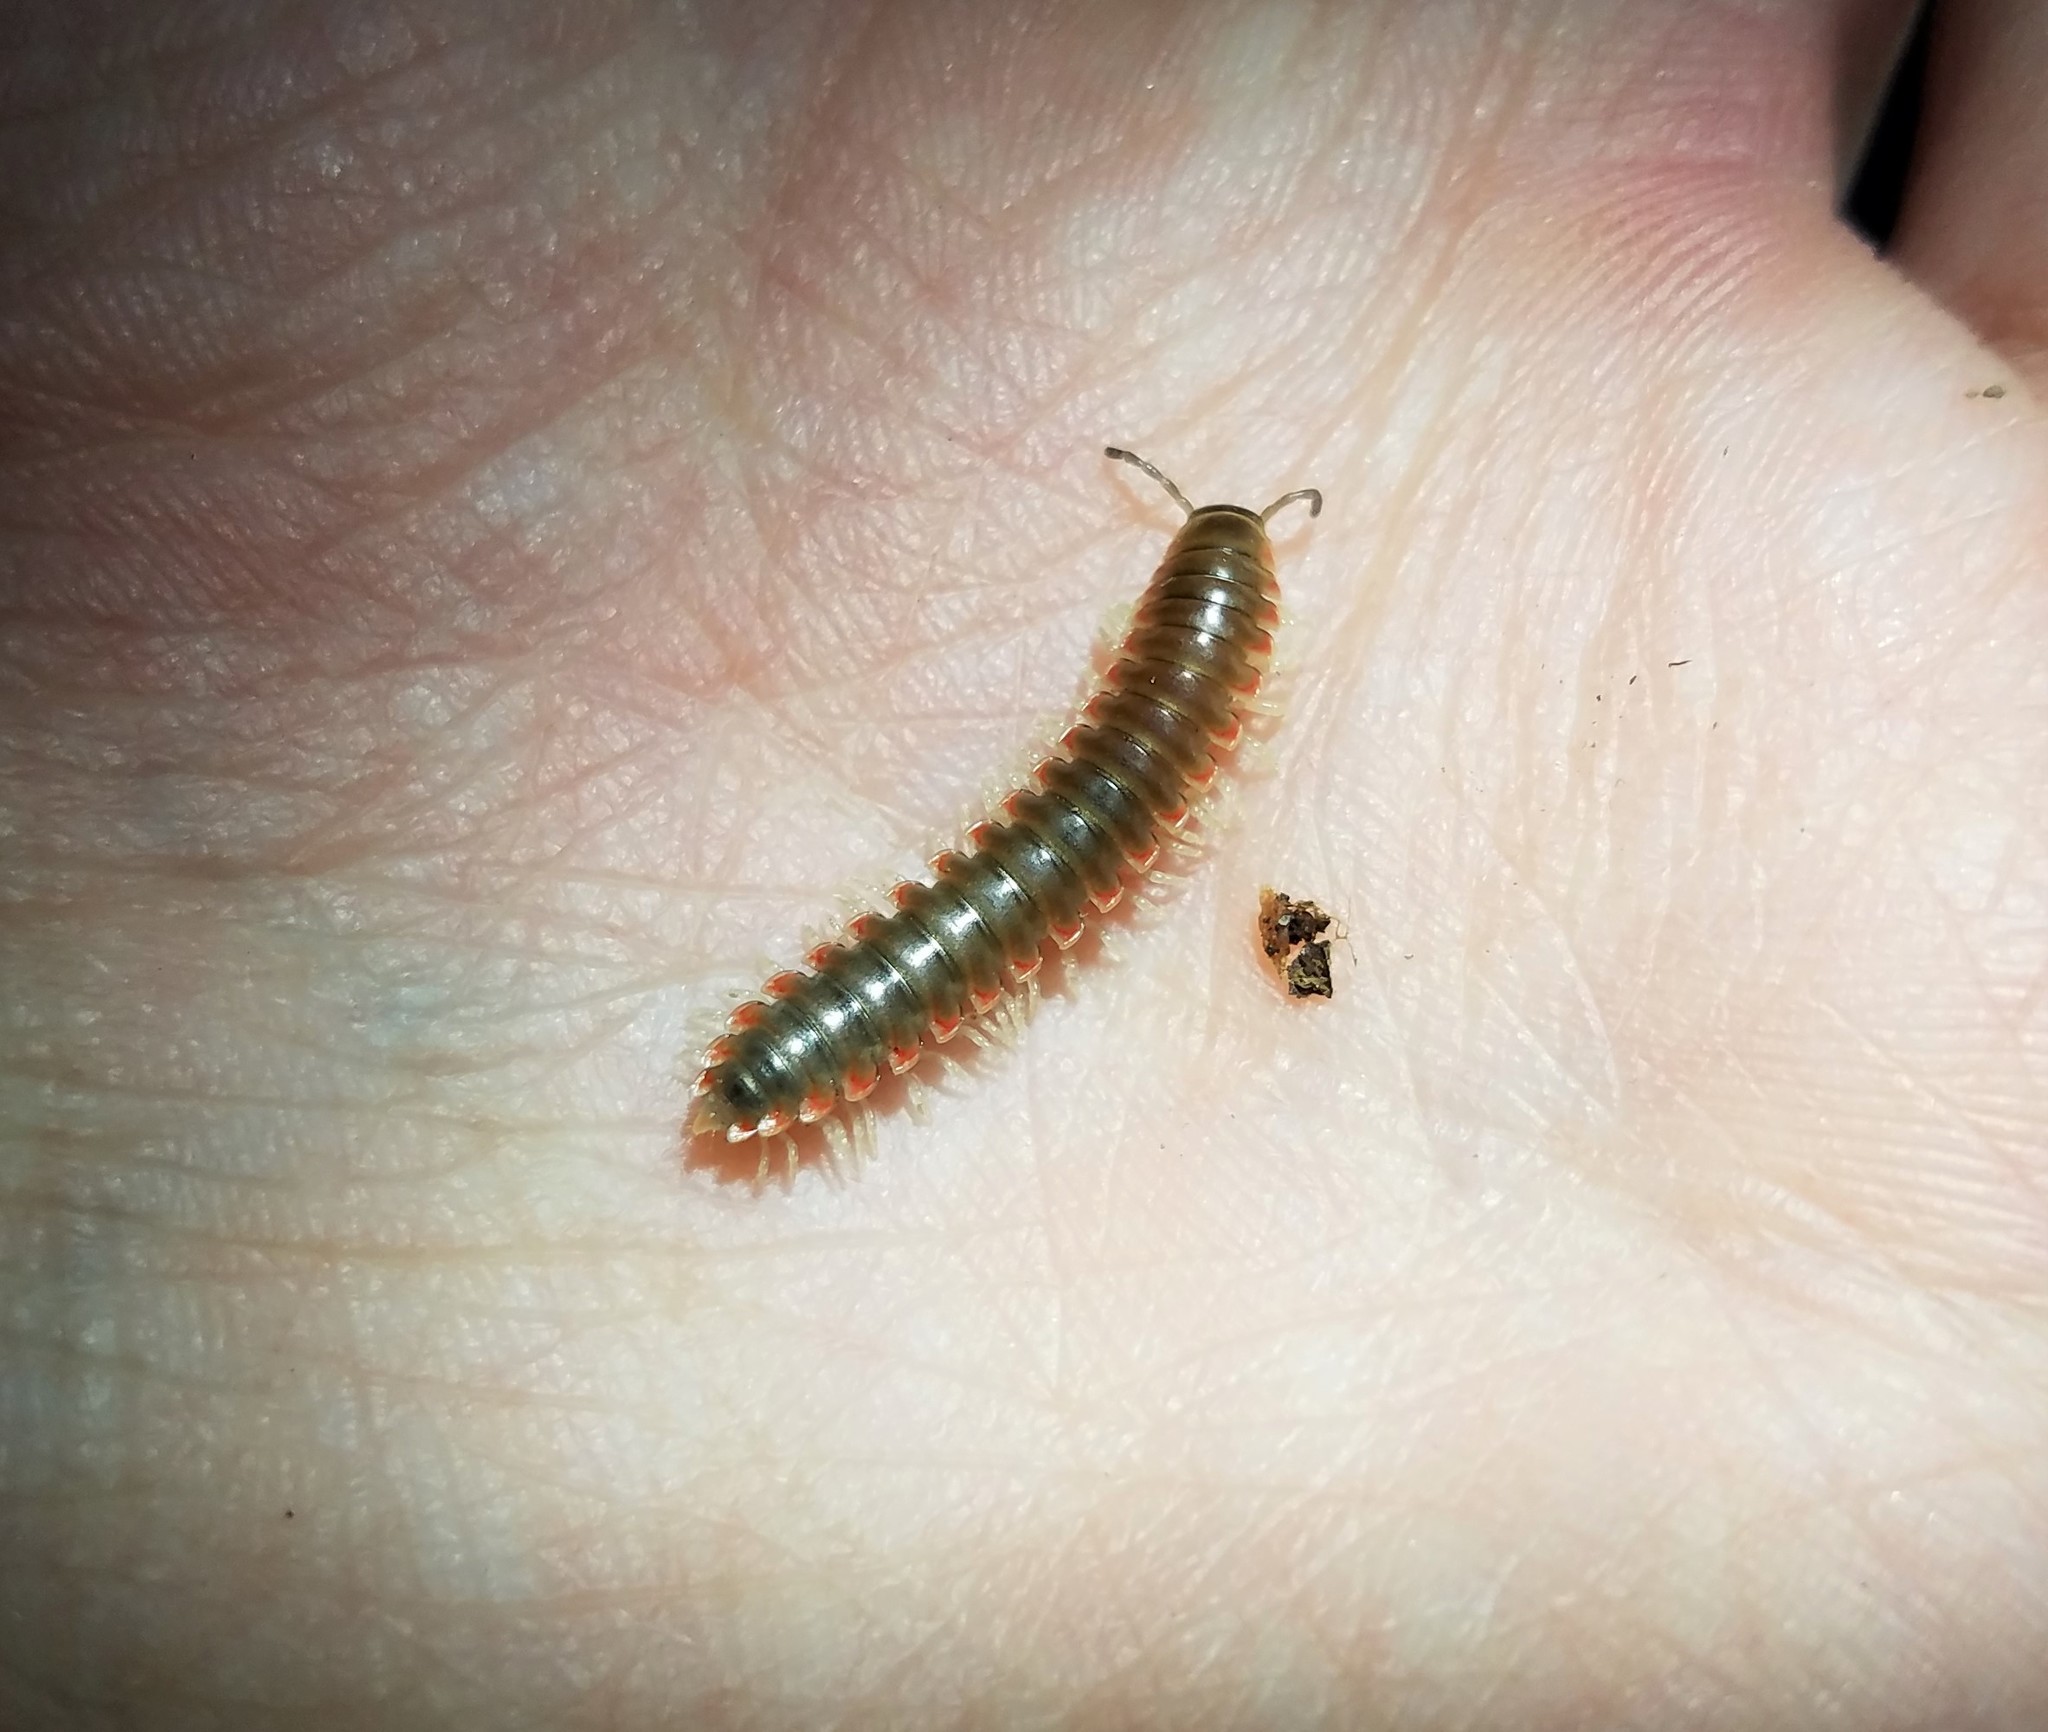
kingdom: Animalia
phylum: Arthropoda
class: Diplopoda
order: Polydesmida
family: Xystodesmidae
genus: Nannaria
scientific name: Nannaria scutellaria
